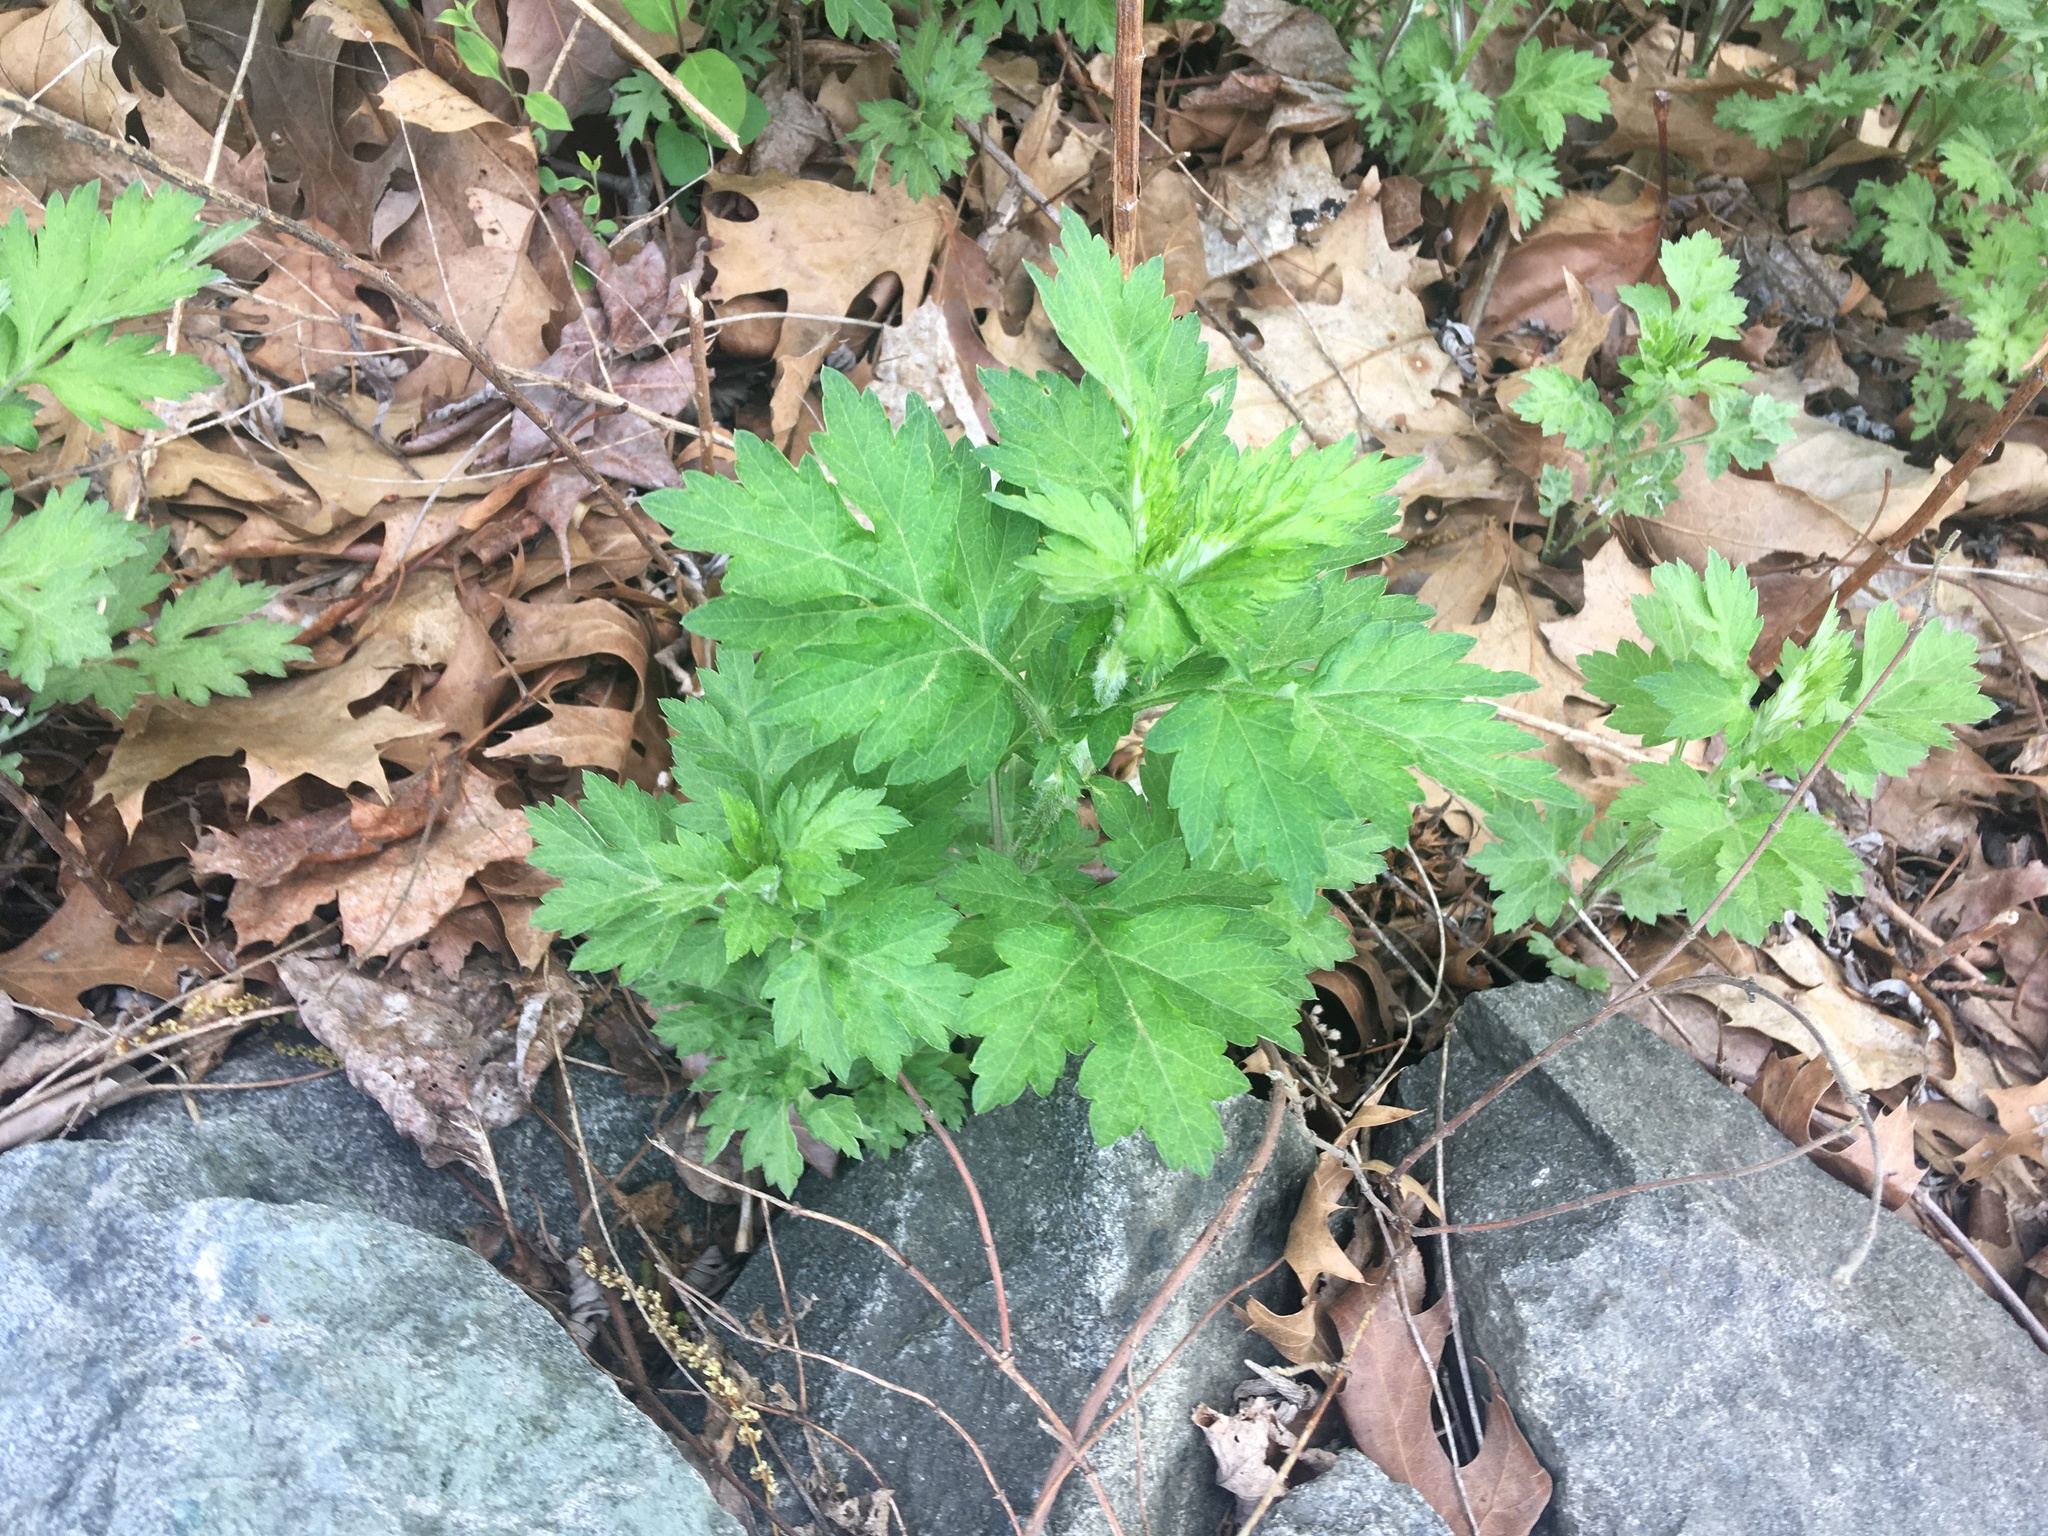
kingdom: Plantae
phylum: Tracheophyta
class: Magnoliopsida
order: Asterales
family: Asteraceae
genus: Artemisia
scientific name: Artemisia vulgaris
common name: Mugwort
